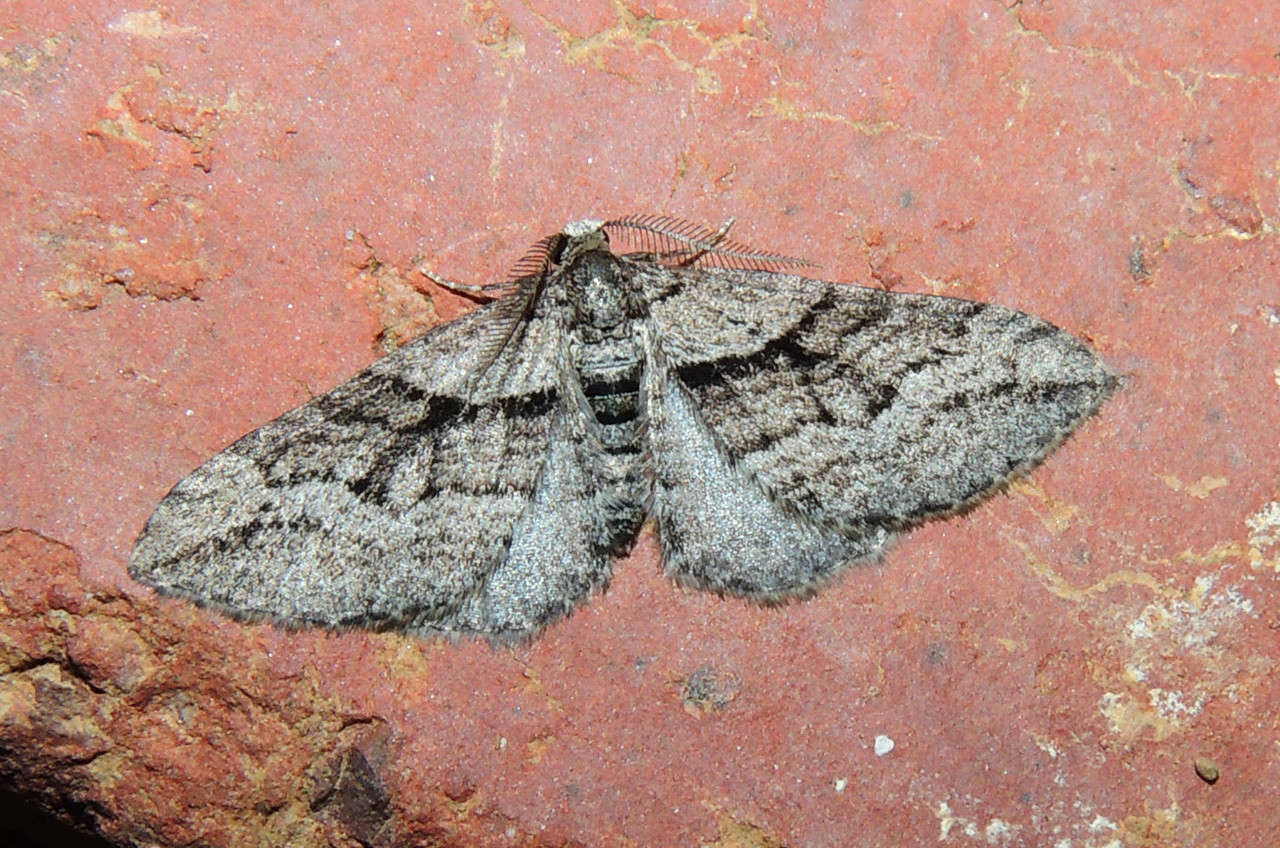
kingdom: Animalia
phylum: Arthropoda
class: Insecta
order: Lepidoptera
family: Geometridae
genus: Hypycnopa
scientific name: Hypycnopa delotis
